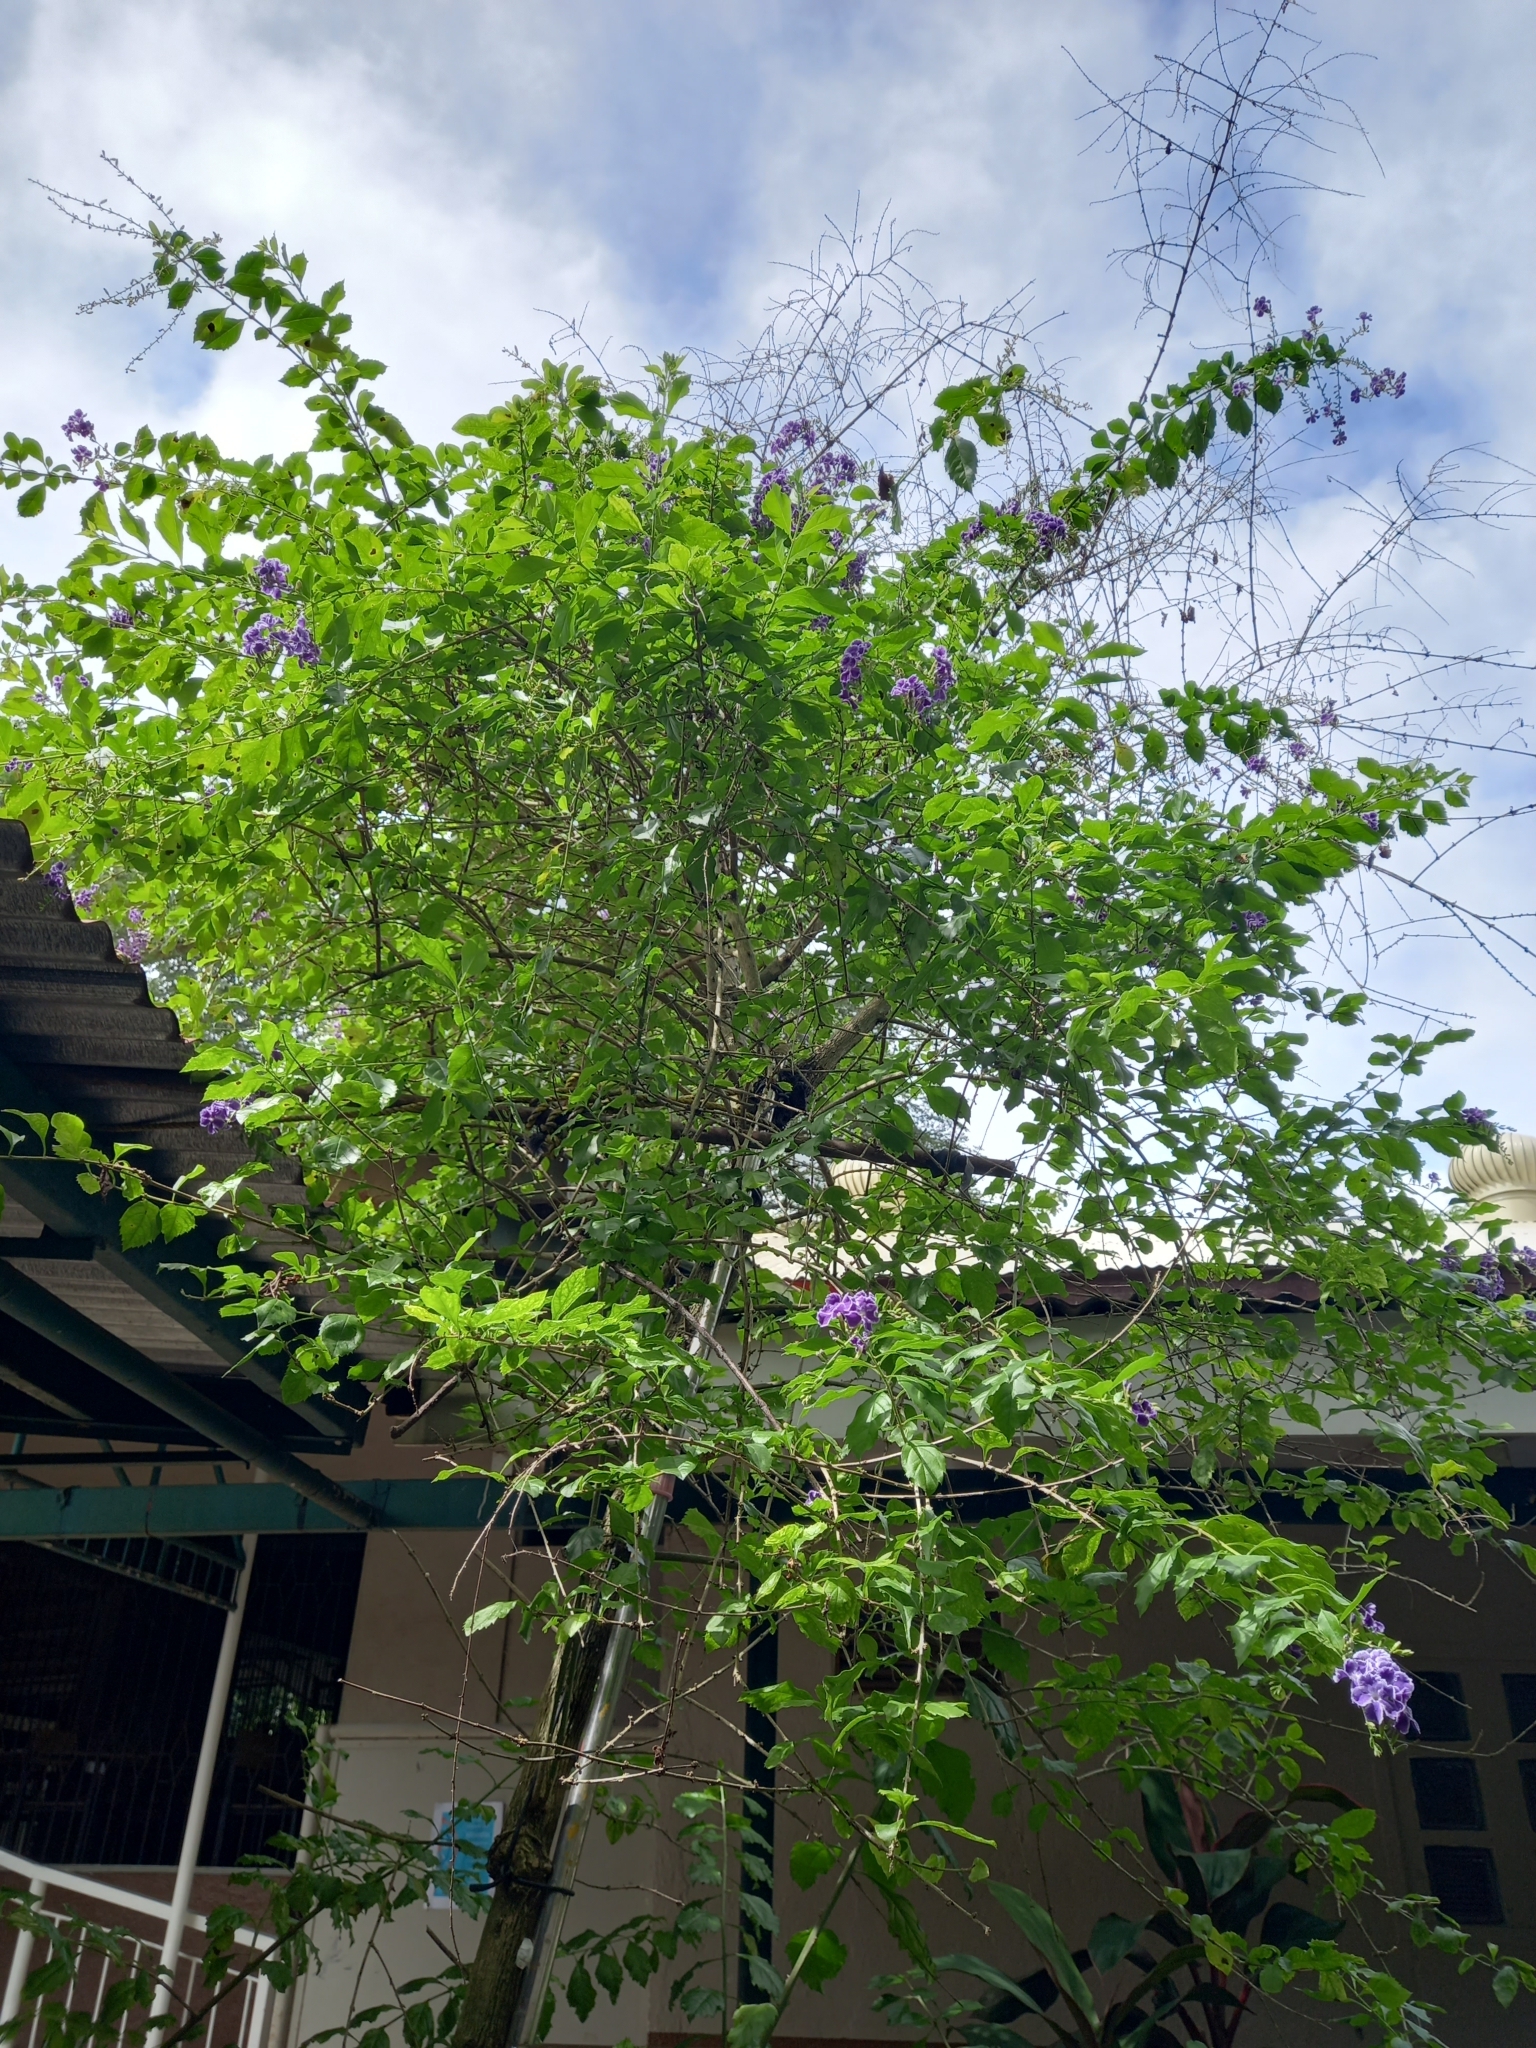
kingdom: Plantae
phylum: Tracheophyta
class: Magnoliopsida
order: Lamiales
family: Verbenaceae
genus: Duranta
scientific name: Duranta erecta
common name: Golden dewdrops
